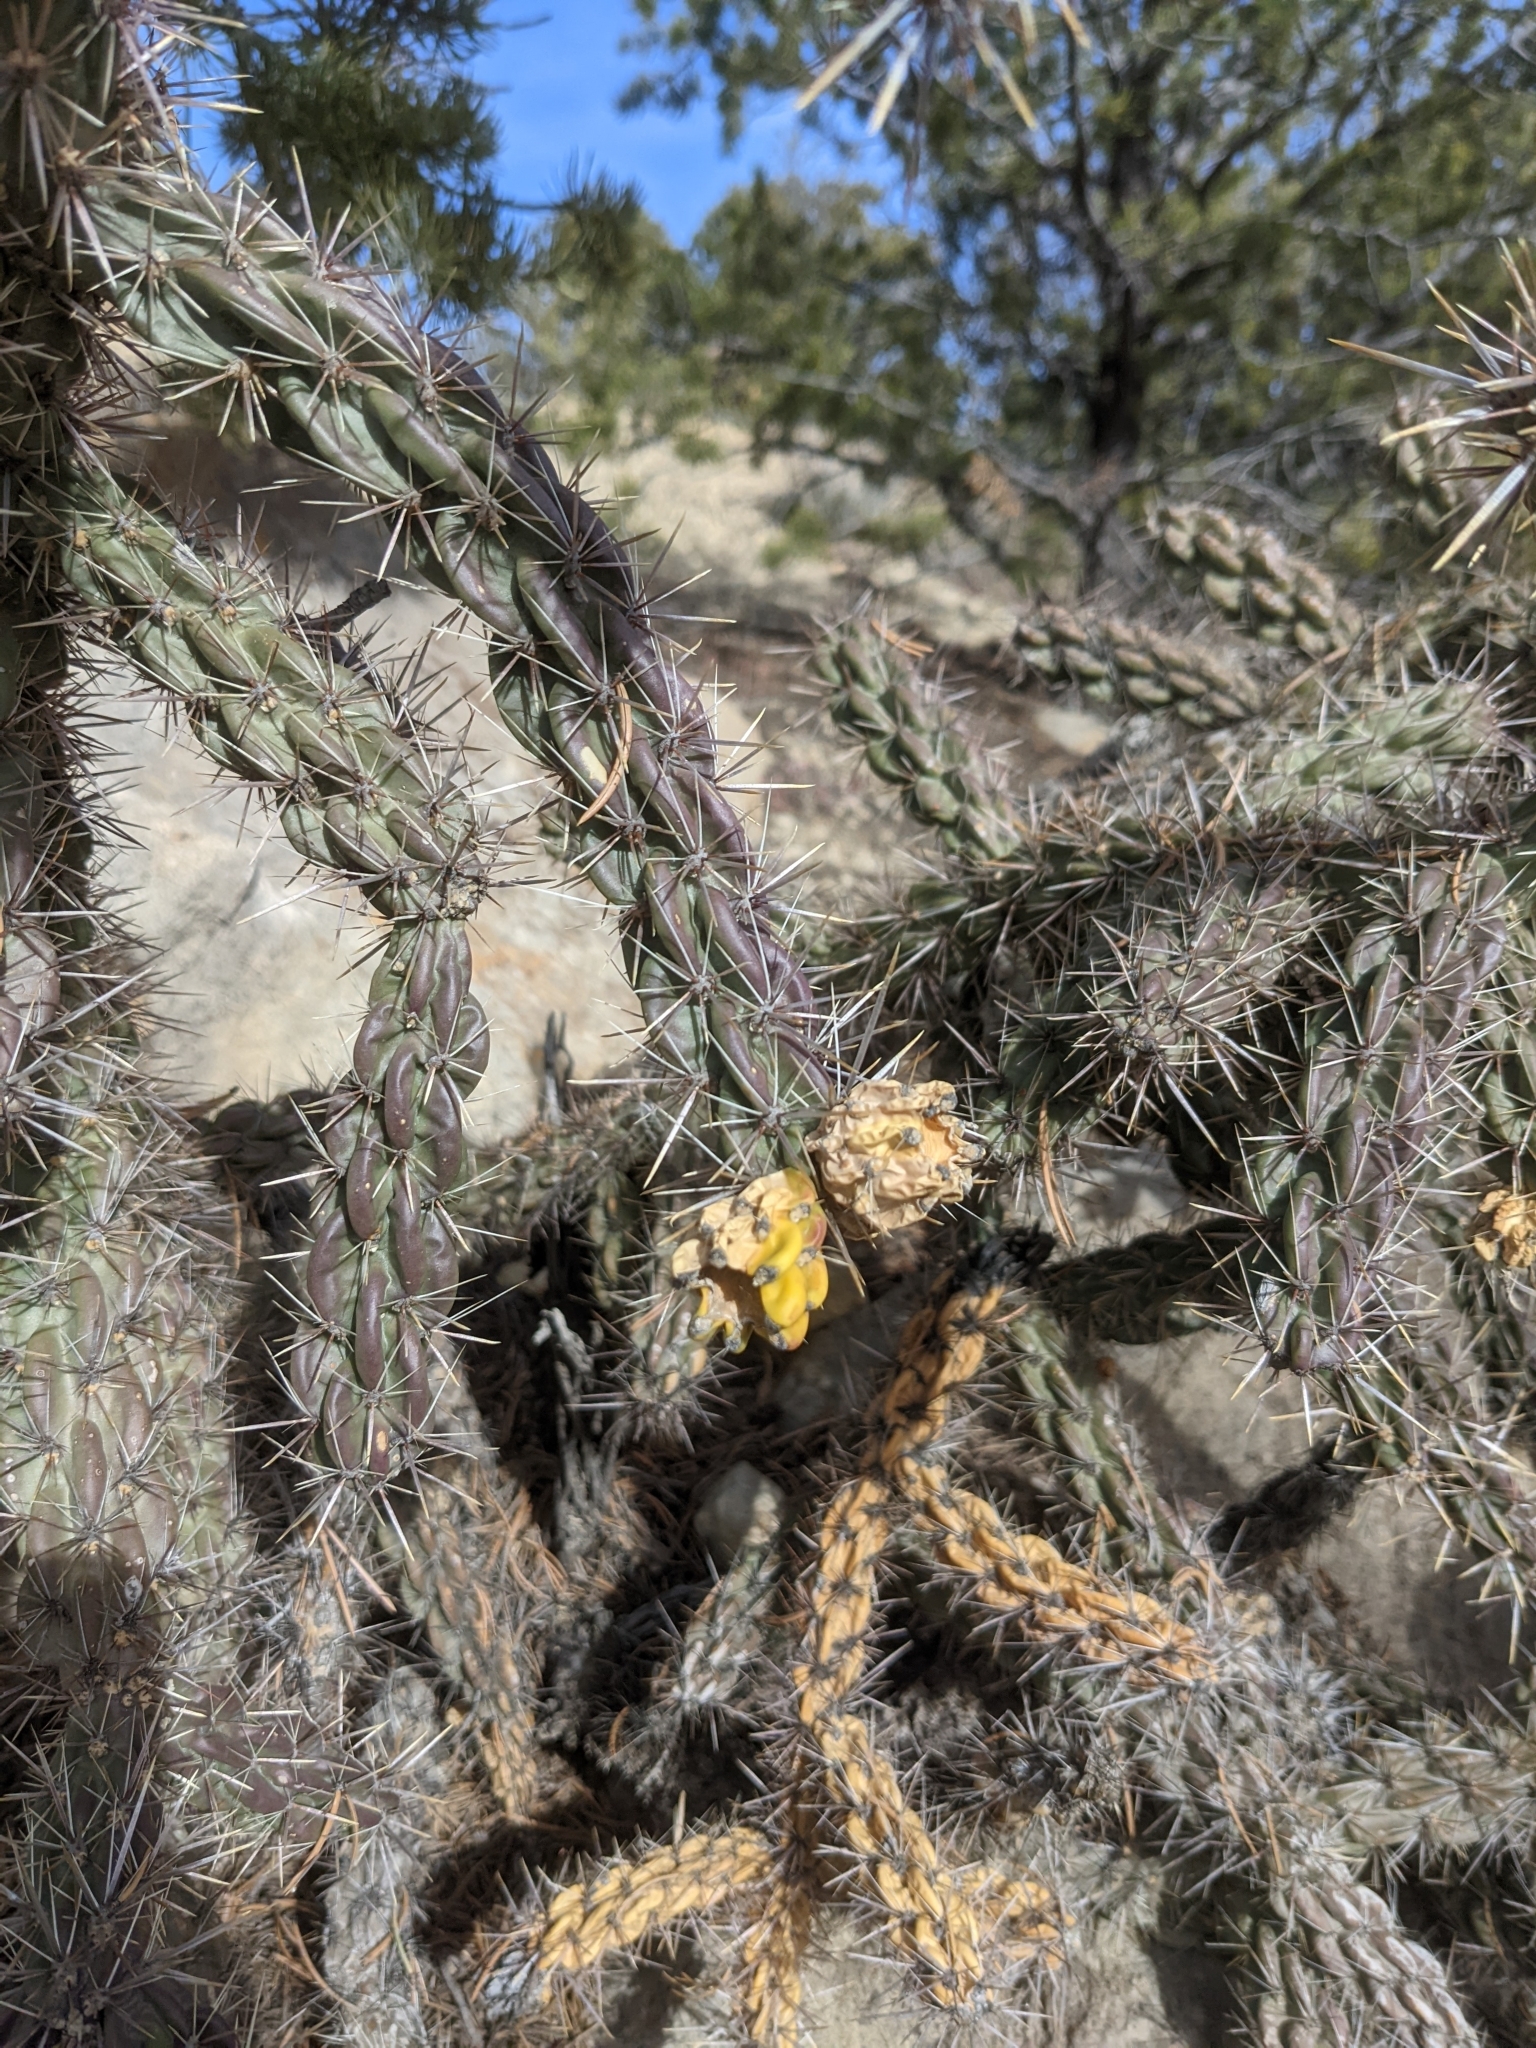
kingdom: Plantae
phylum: Tracheophyta
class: Magnoliopsida
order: Caryophyllales
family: Cactaceae
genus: Cylindropuntia
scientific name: Cylindropuntia imbricata
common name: Candelabrum cactus
